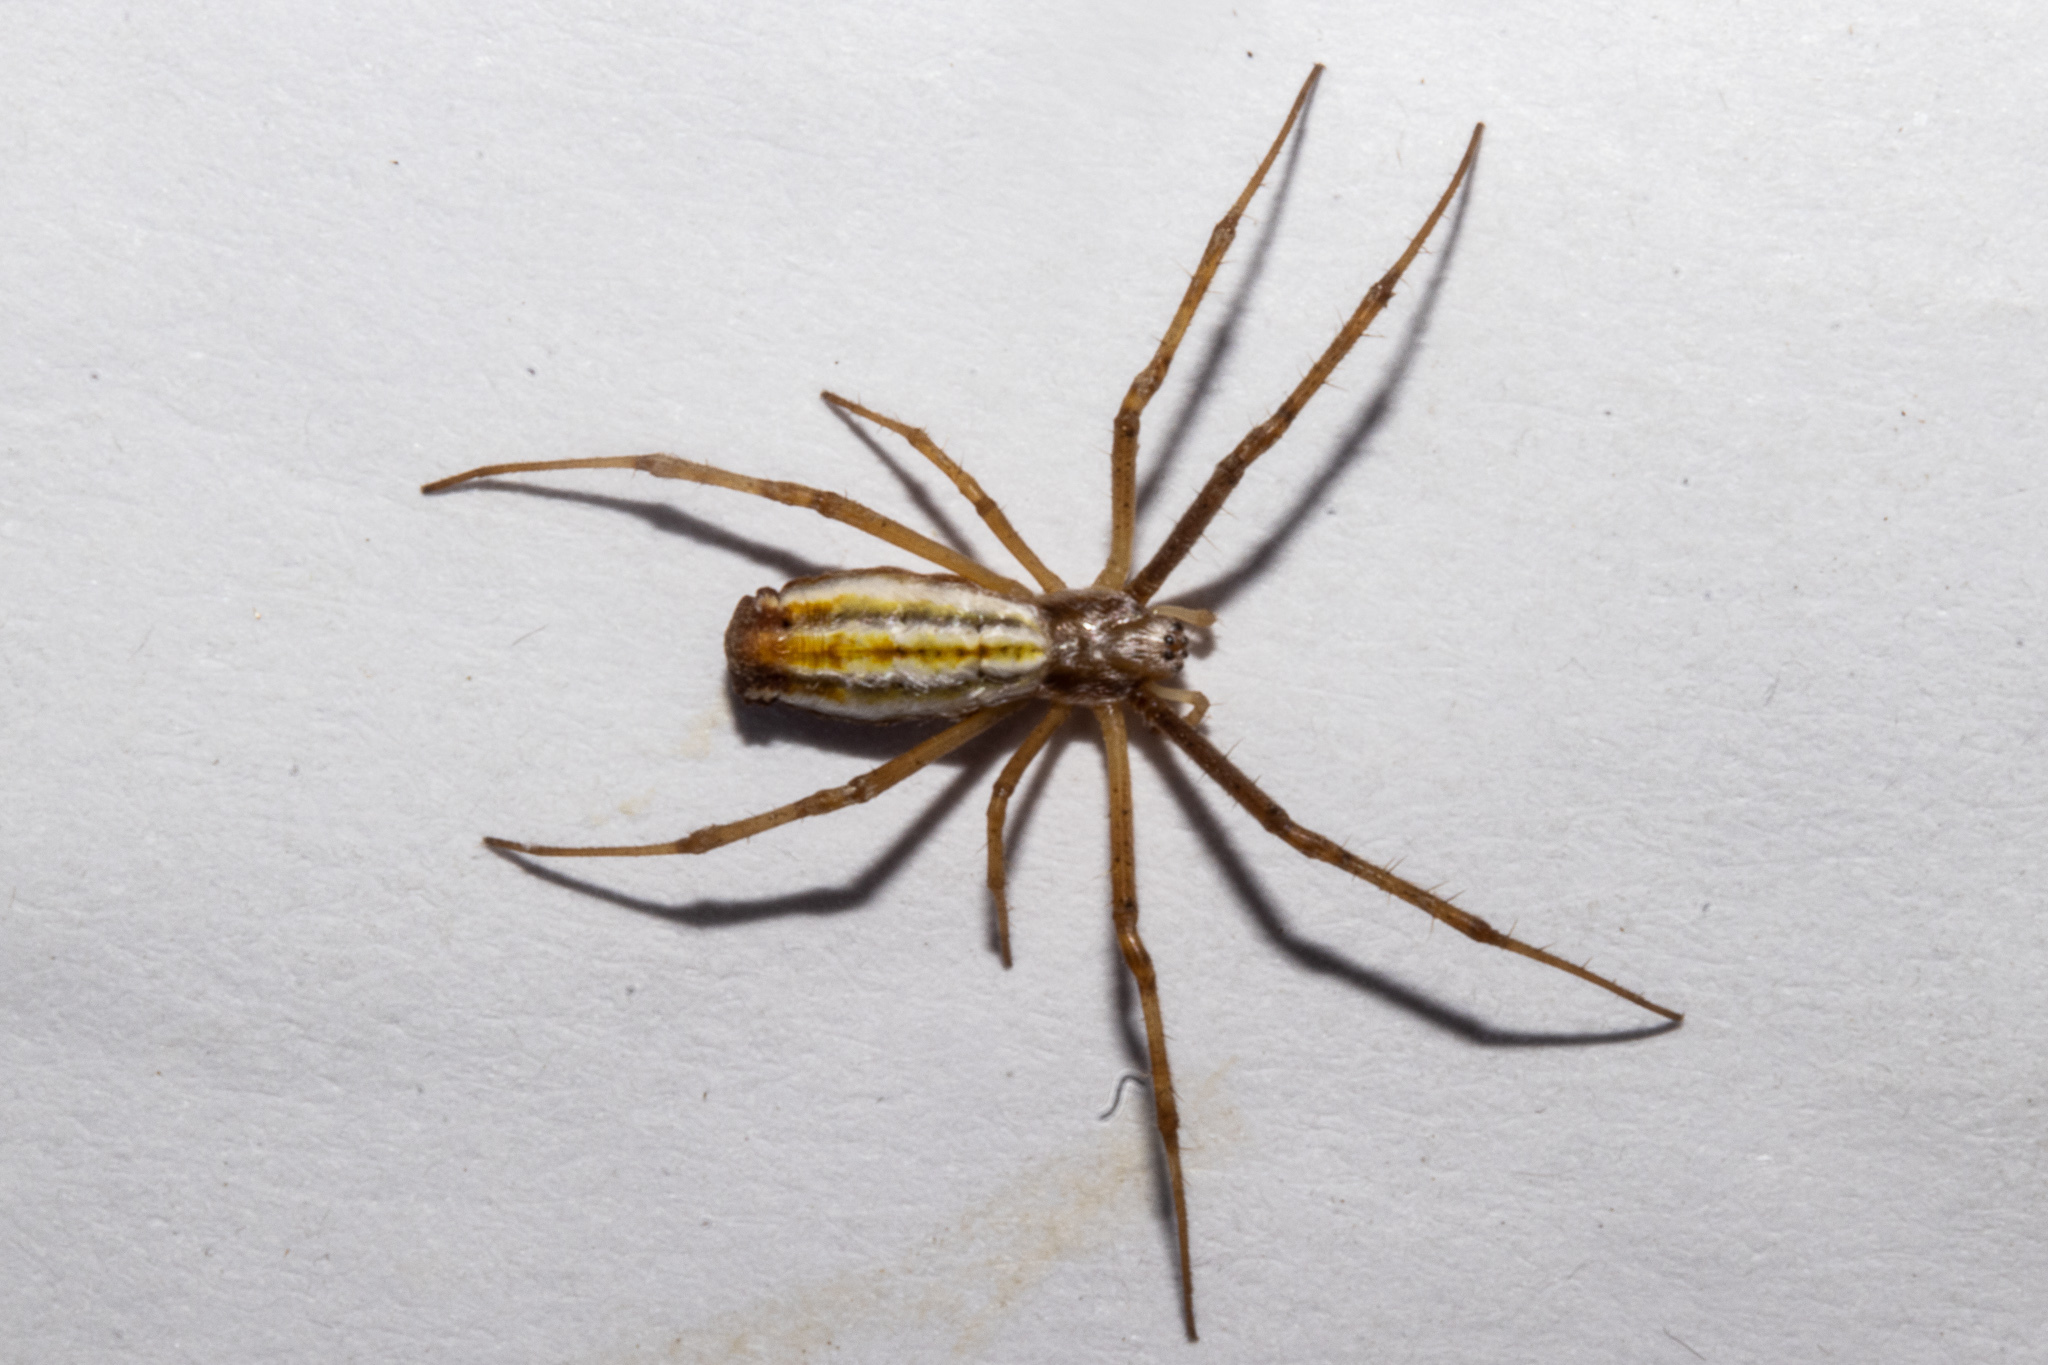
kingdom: Animalia
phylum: Arthropoda
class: Arachnida
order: Araneae
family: Araneidae
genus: Argiope
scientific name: Argiope protensa
